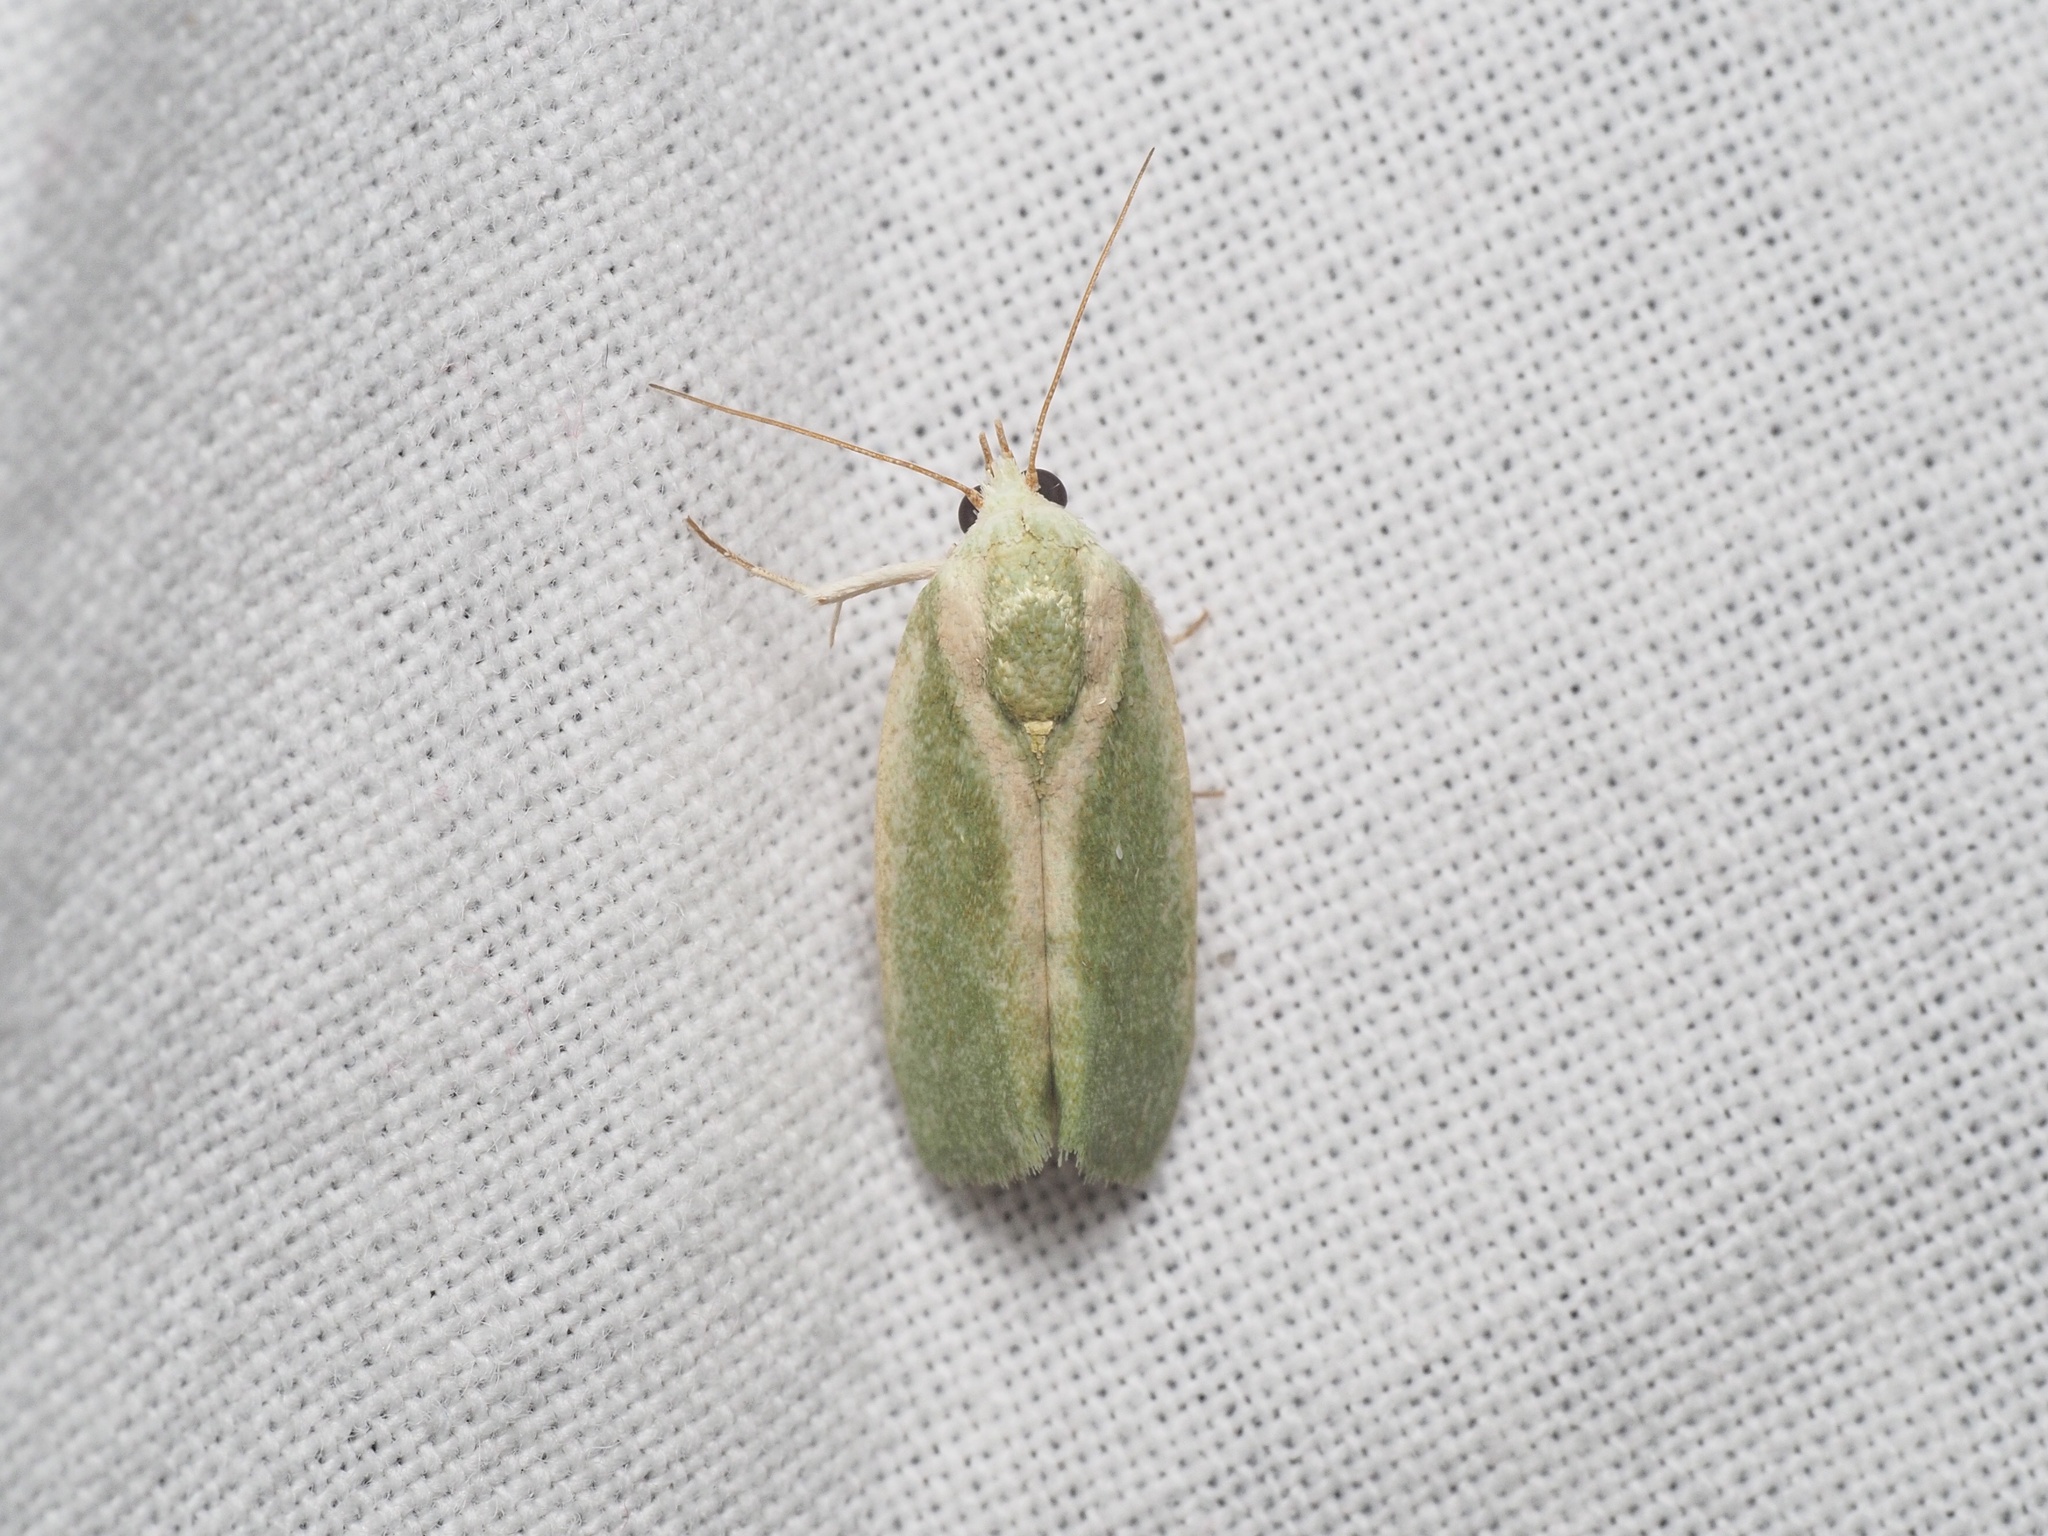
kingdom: Animalia
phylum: Arthropoda
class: Insecta
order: Lepidoptera
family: Nolidae
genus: Earias
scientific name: Earias insulana
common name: Egyptian bollworm
